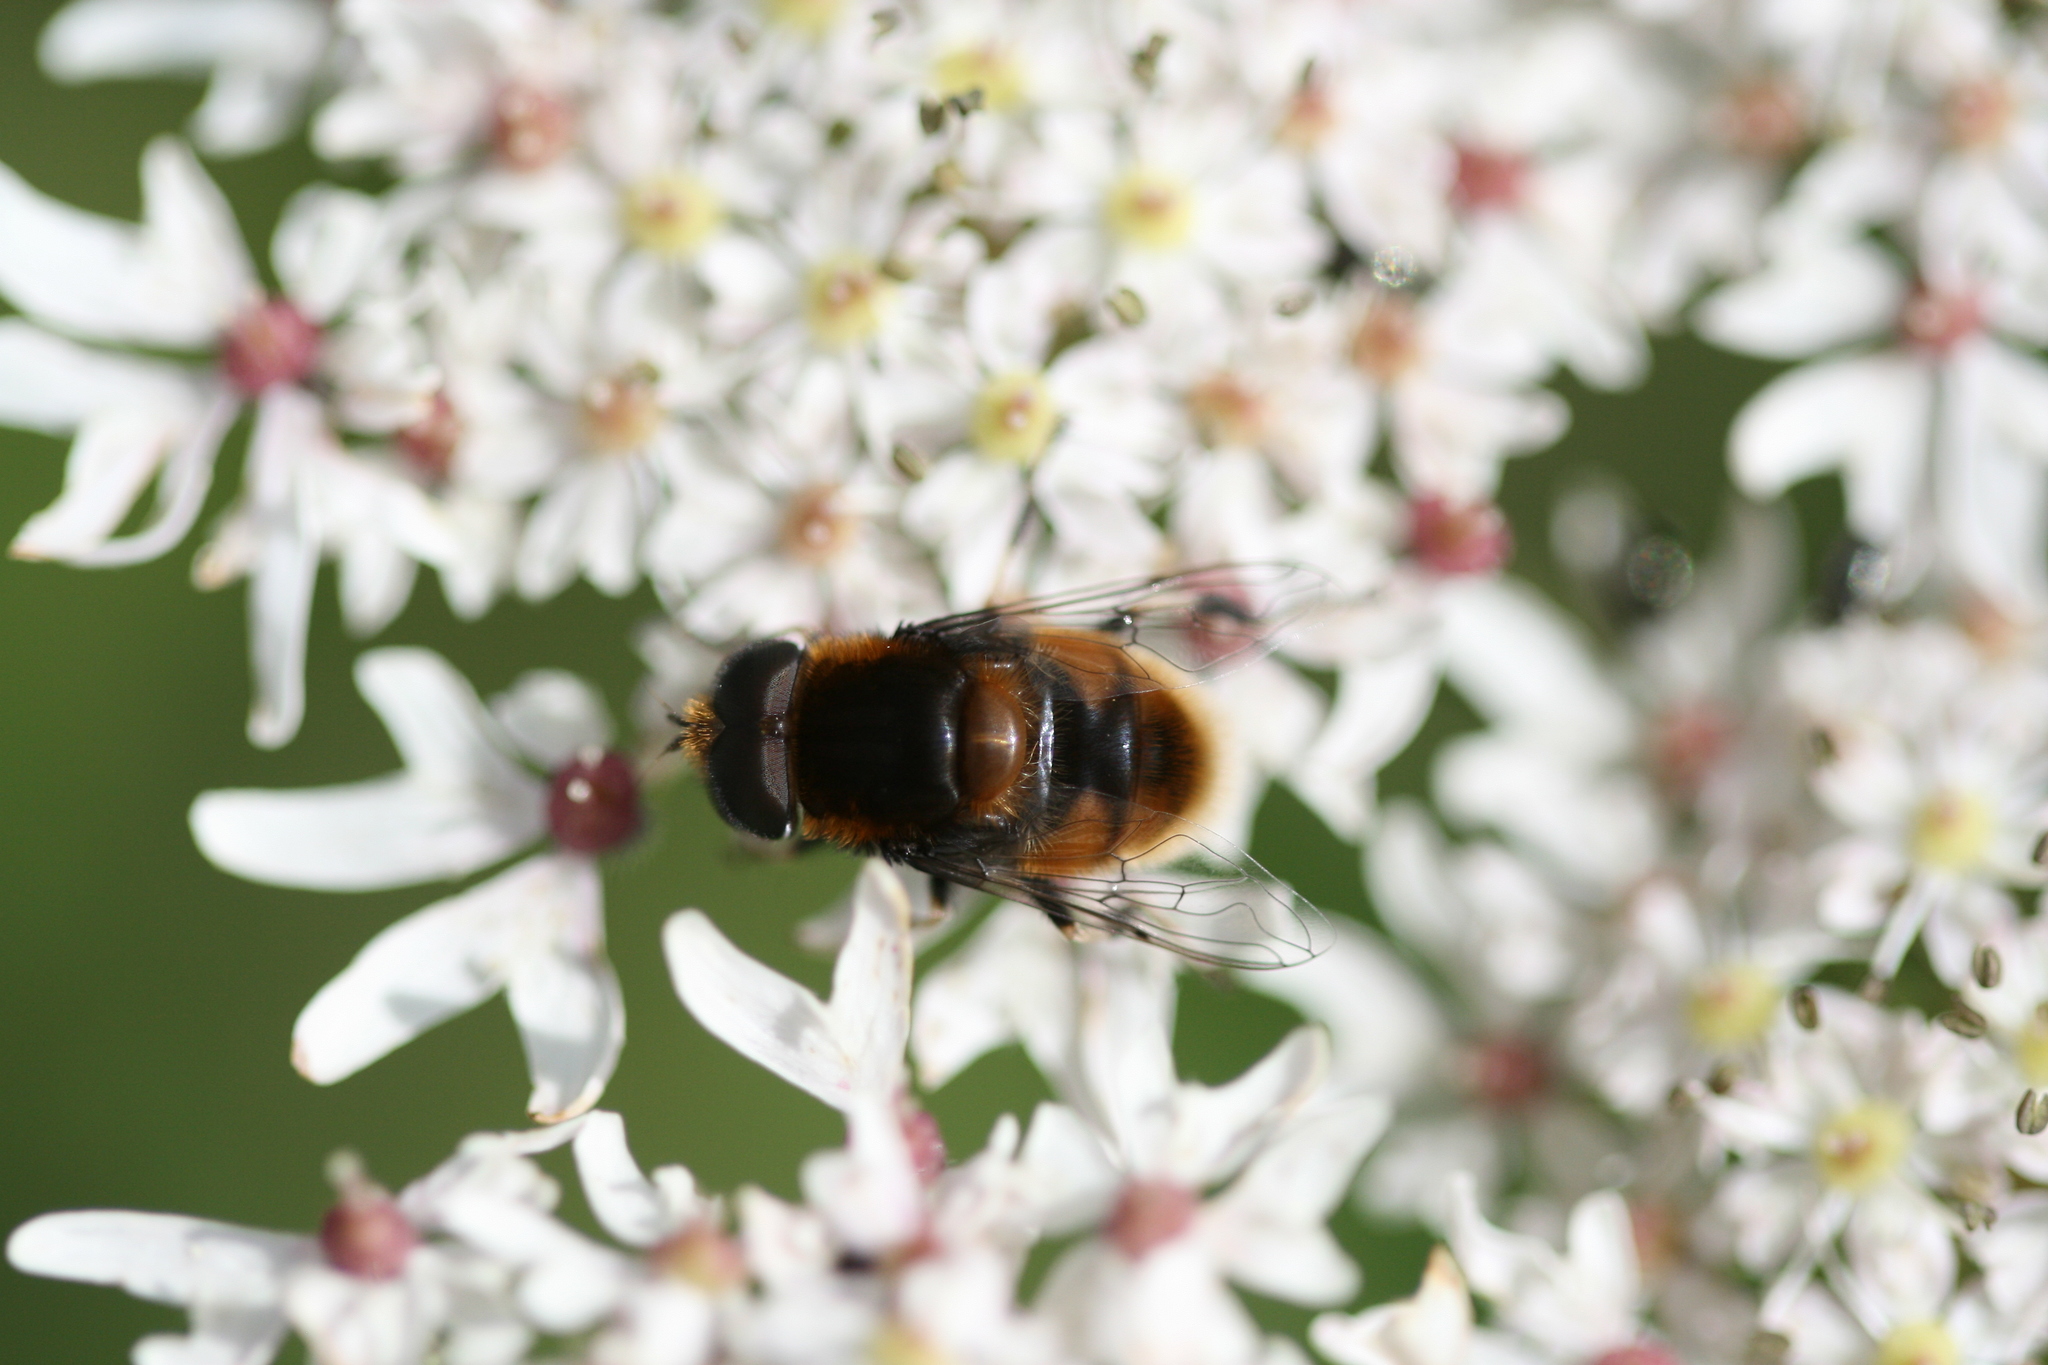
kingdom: Animalia
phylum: Arthropoda
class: Insecta
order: Diptera
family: Syrphidae
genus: Eristalis
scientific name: Eristalis intricaria
